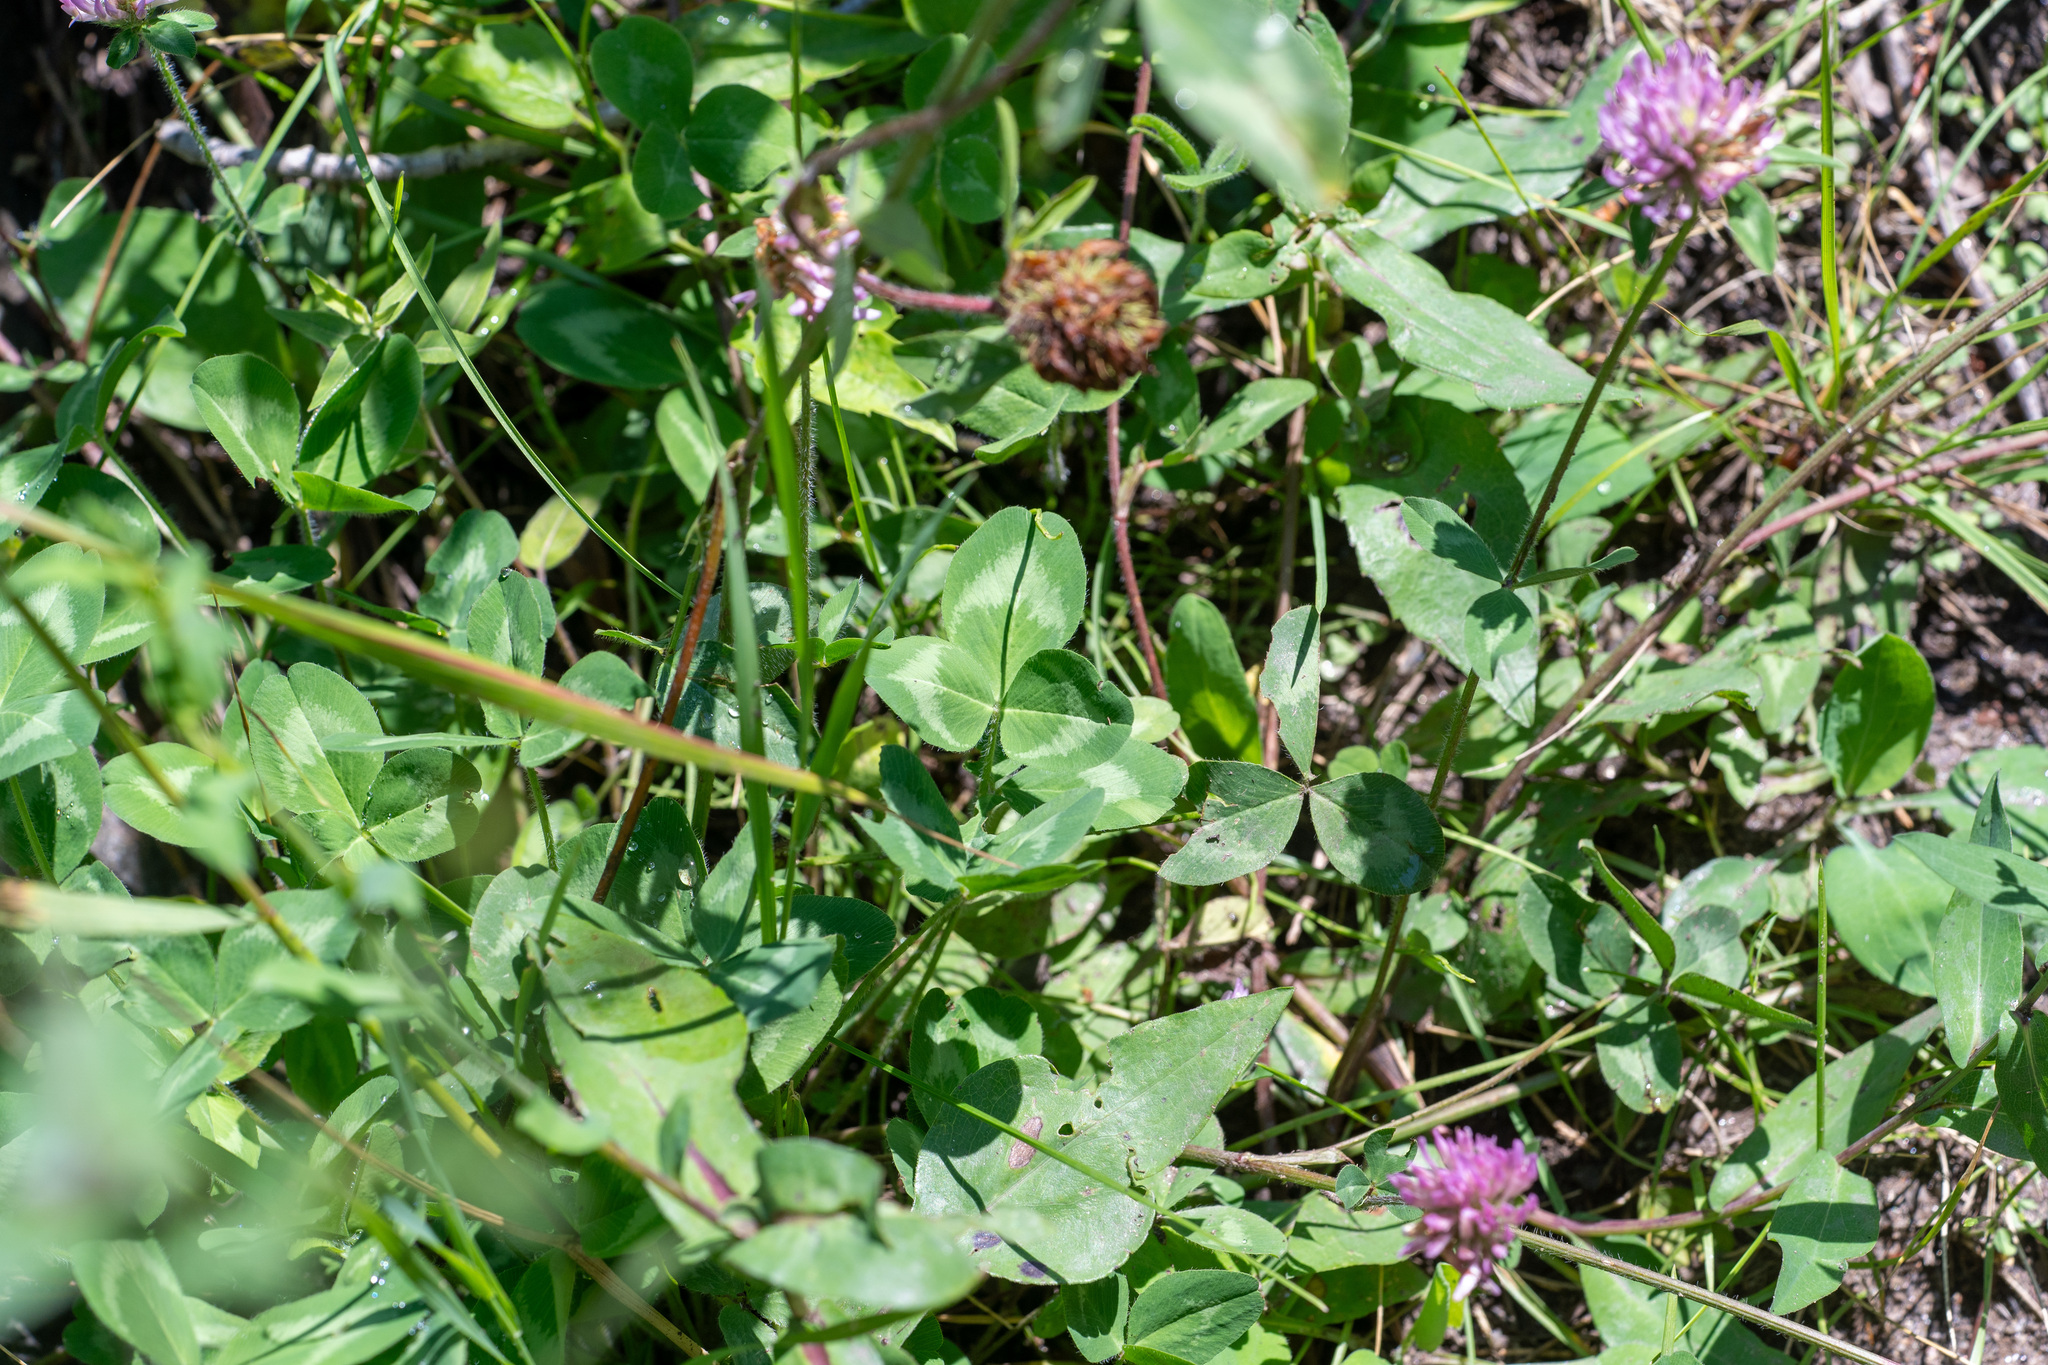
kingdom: Plantae
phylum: Tracheophyta
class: Magnoliopsida
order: Fabales
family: Fabaceae
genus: Trifolium
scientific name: Trifolium pratense
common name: Red clover
